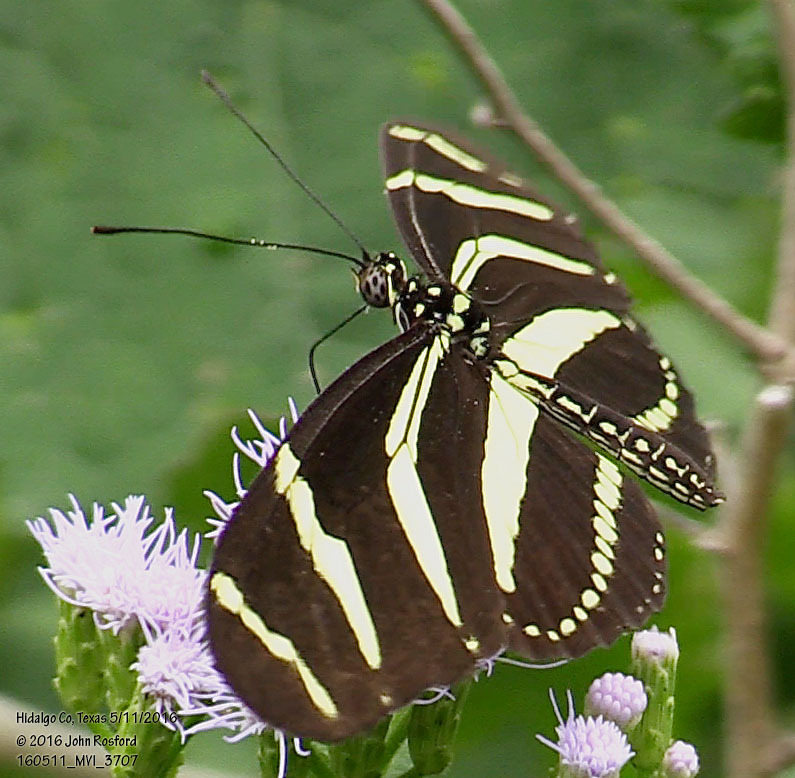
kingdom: Animalia
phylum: Arthropoda
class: Insecta
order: Lepidoptera
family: Nymphalidae
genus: Heliconius
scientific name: Heliconius charithonia
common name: Zebra long wing
